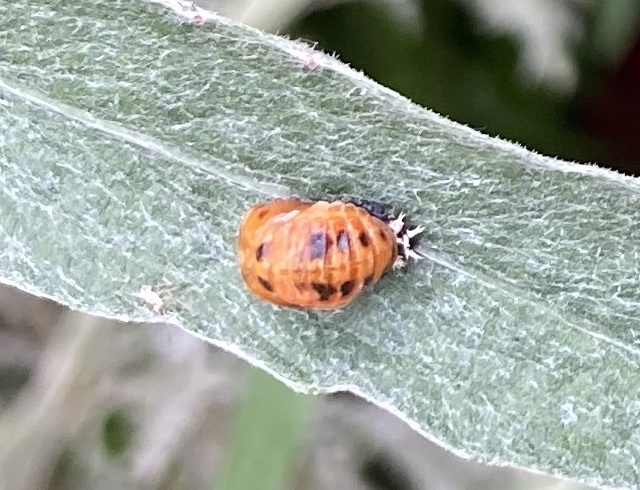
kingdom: Animalia
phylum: Arthropoda
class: Insecta
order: Coleoptera
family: Coccinellidae
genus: Harmonia
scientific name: Harmonia axyridis
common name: Harlequin ladybird
